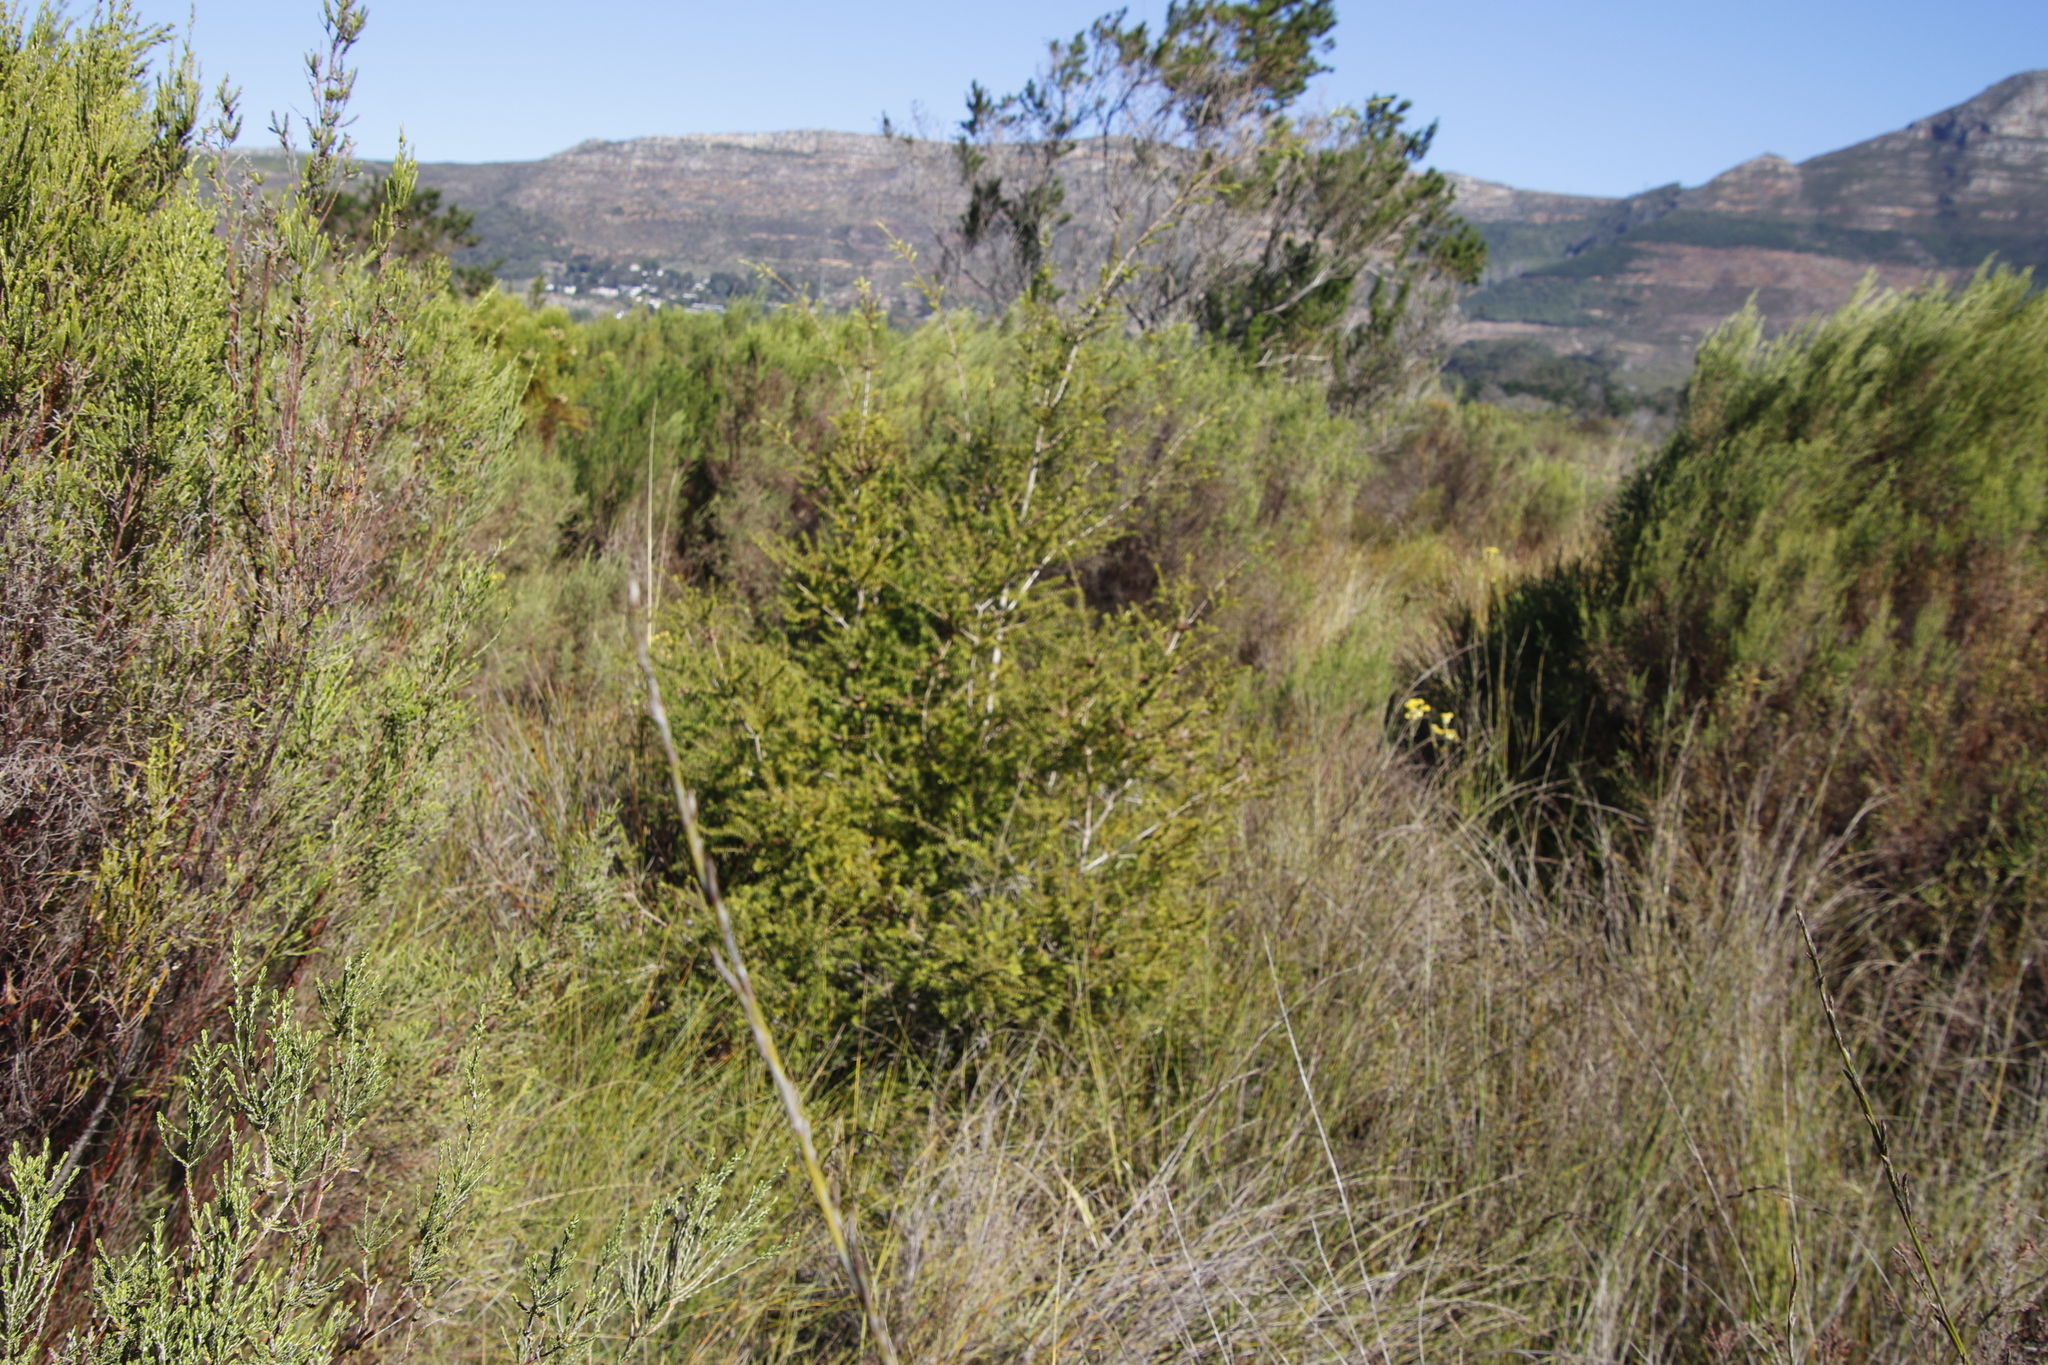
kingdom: Plantae
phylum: Tracheophyta
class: Magnoliopsida
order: Myrtales
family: Myrtaceae
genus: Melaleuca
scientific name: Melaleuca styphelioides
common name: Prickly paperbark
